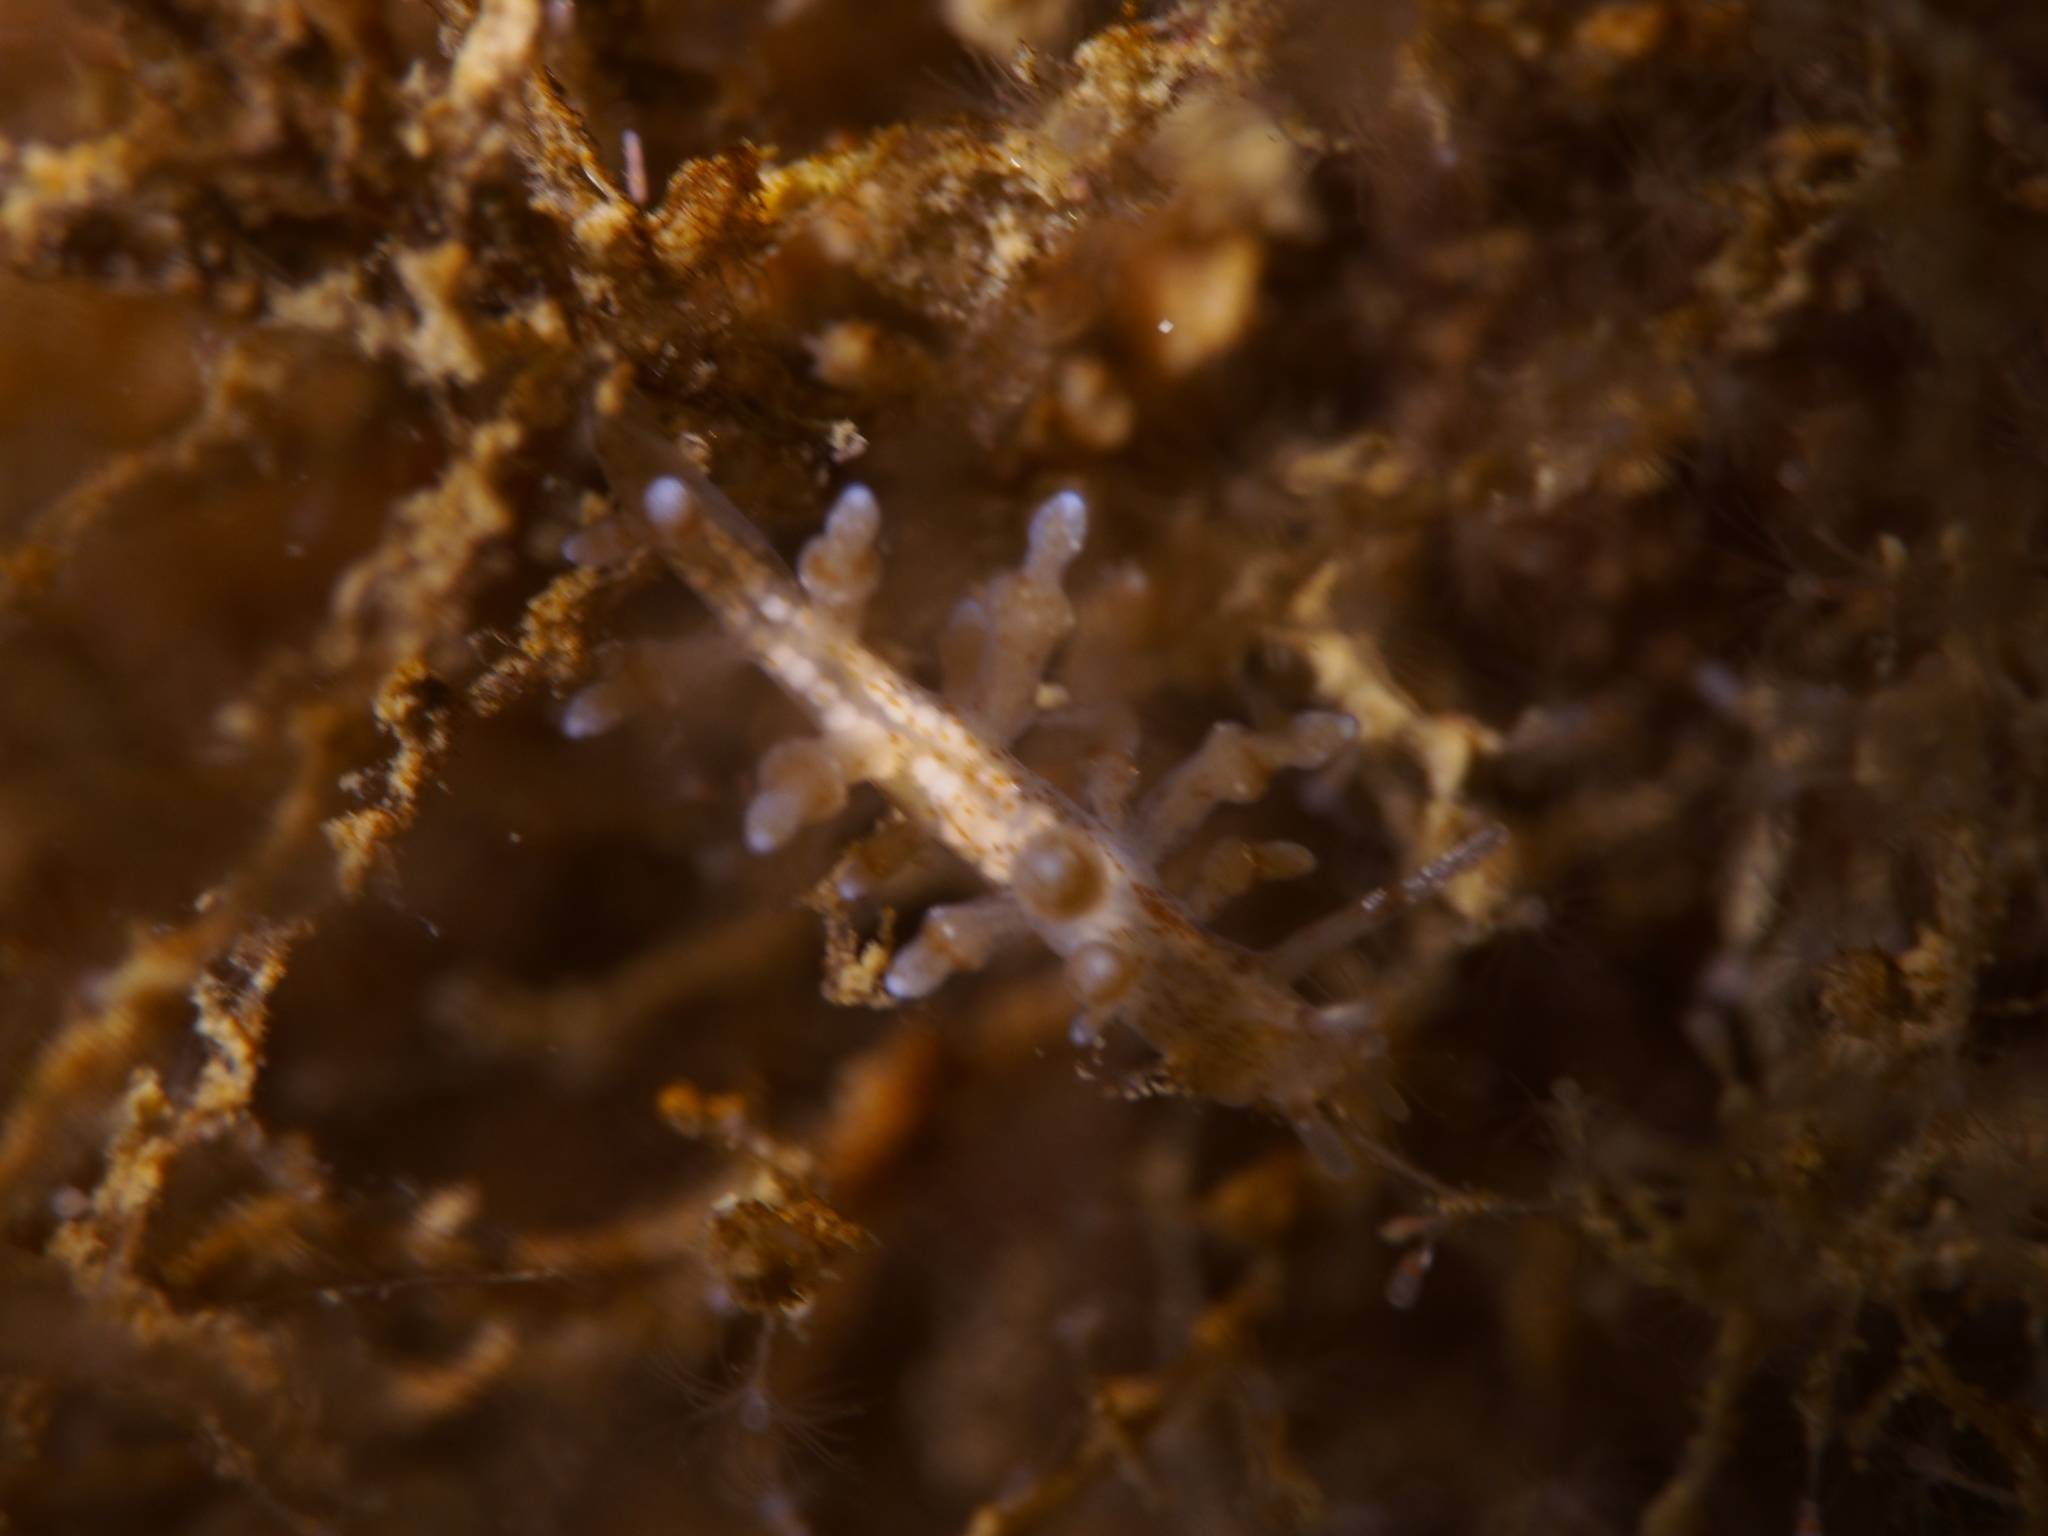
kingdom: Animalia
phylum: Mollusca
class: Gastropoda
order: Nudibranchia
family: Eubranchidae
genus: Eubranchus
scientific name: Eubranchus rupium
